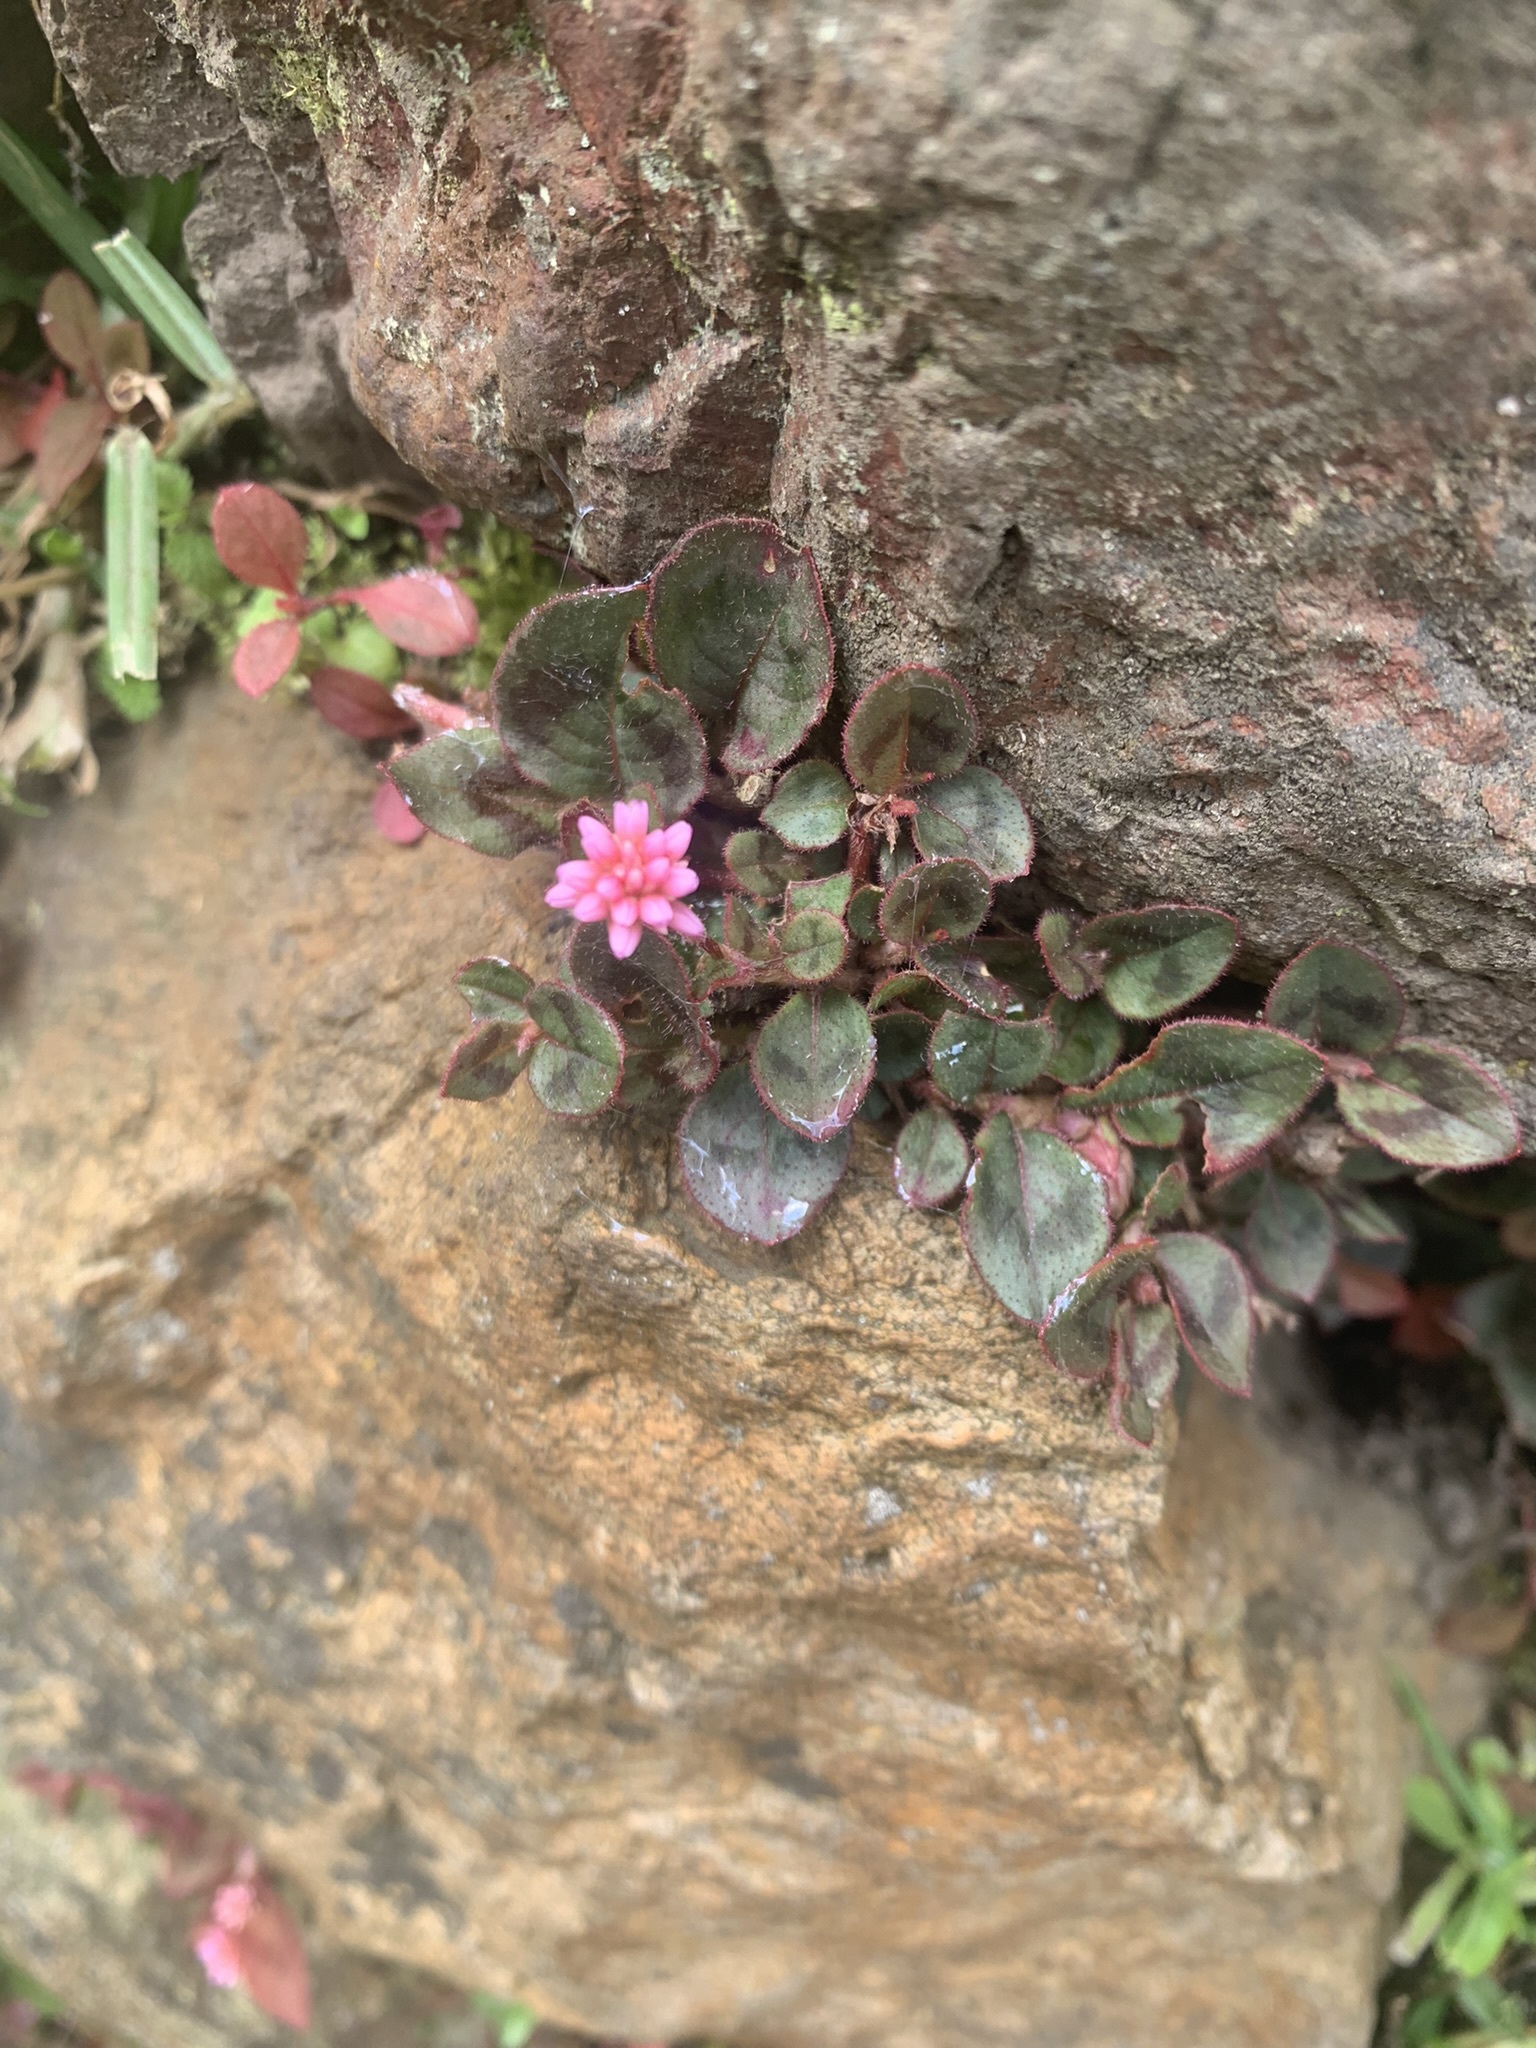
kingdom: Plantae
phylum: Tracheophyta
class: Magnoliopsida
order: Caryophyllales
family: Polygonaceae
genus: Persicaria
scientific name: Persicaria capitata
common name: Pinkhead smartweed
